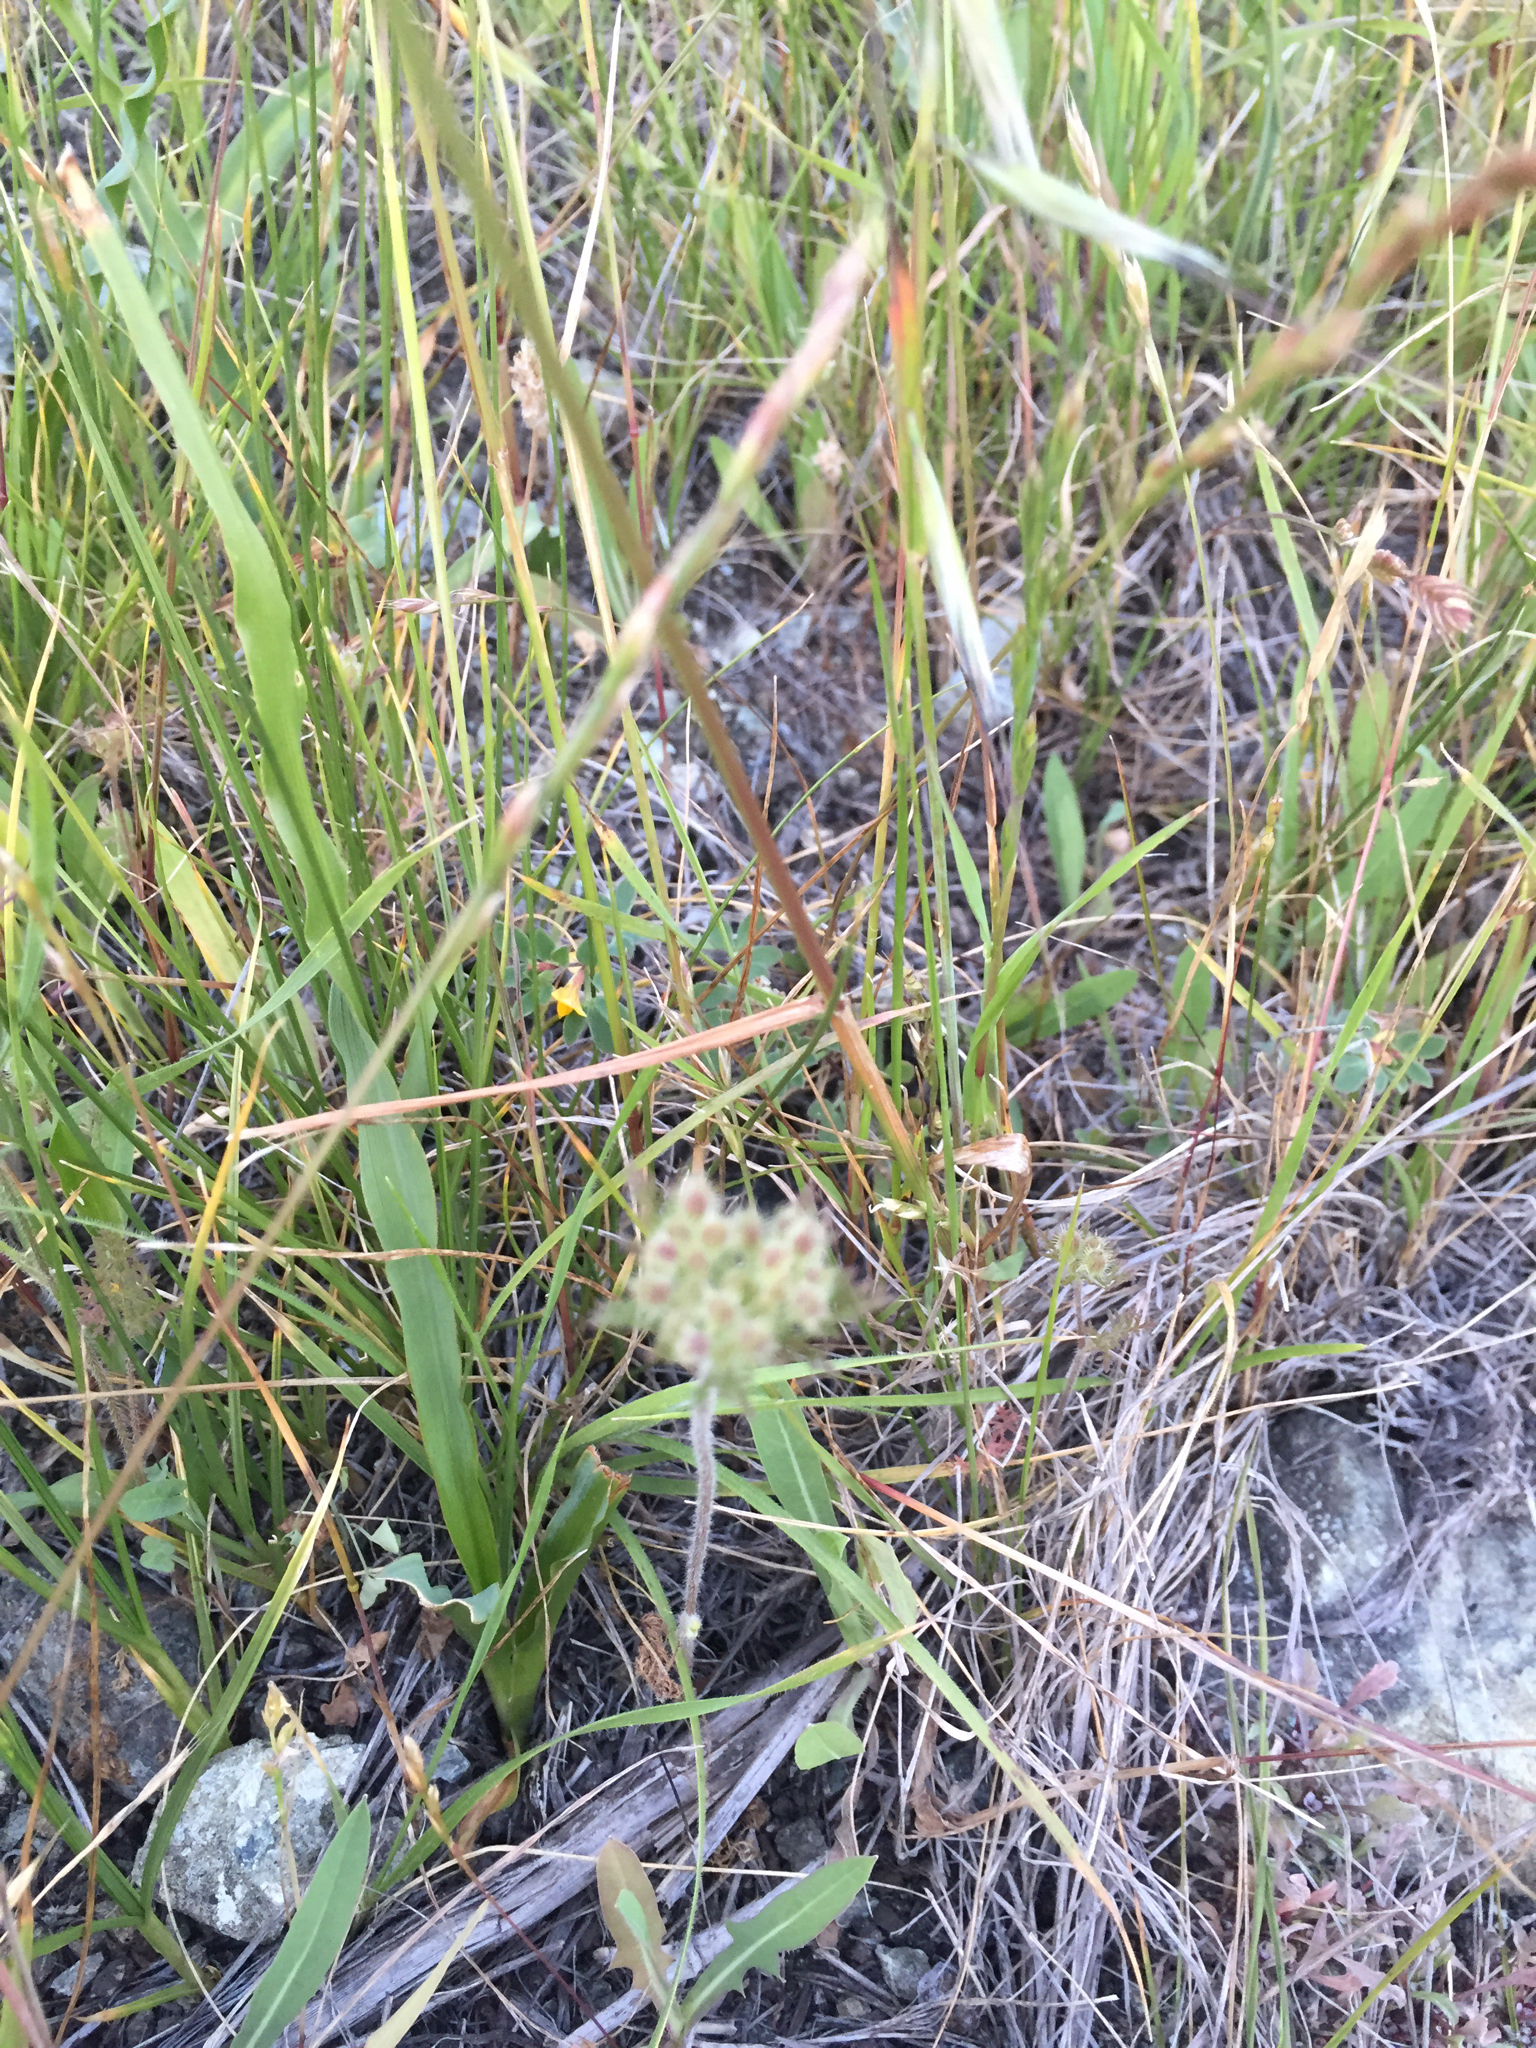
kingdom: Plantae
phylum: Tracheophyta
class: Magnoliopsida
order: Apiales
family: Apiaceae
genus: Daucus
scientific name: Daucus pusillus
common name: Southwest wild carrot
